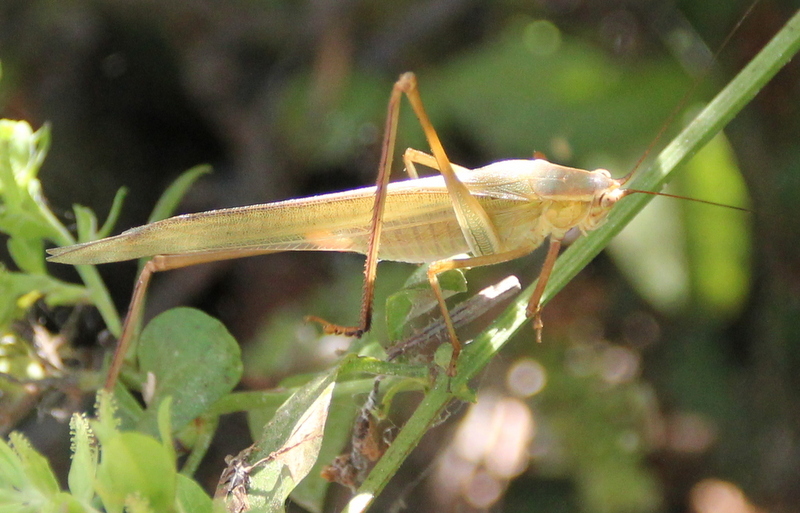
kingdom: Animalia
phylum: Arthropoda
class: Insecta
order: Orthoptera
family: Tettigoniidae
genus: Scudderia
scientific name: Scudderia mexicana
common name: Mexican bush katydid
